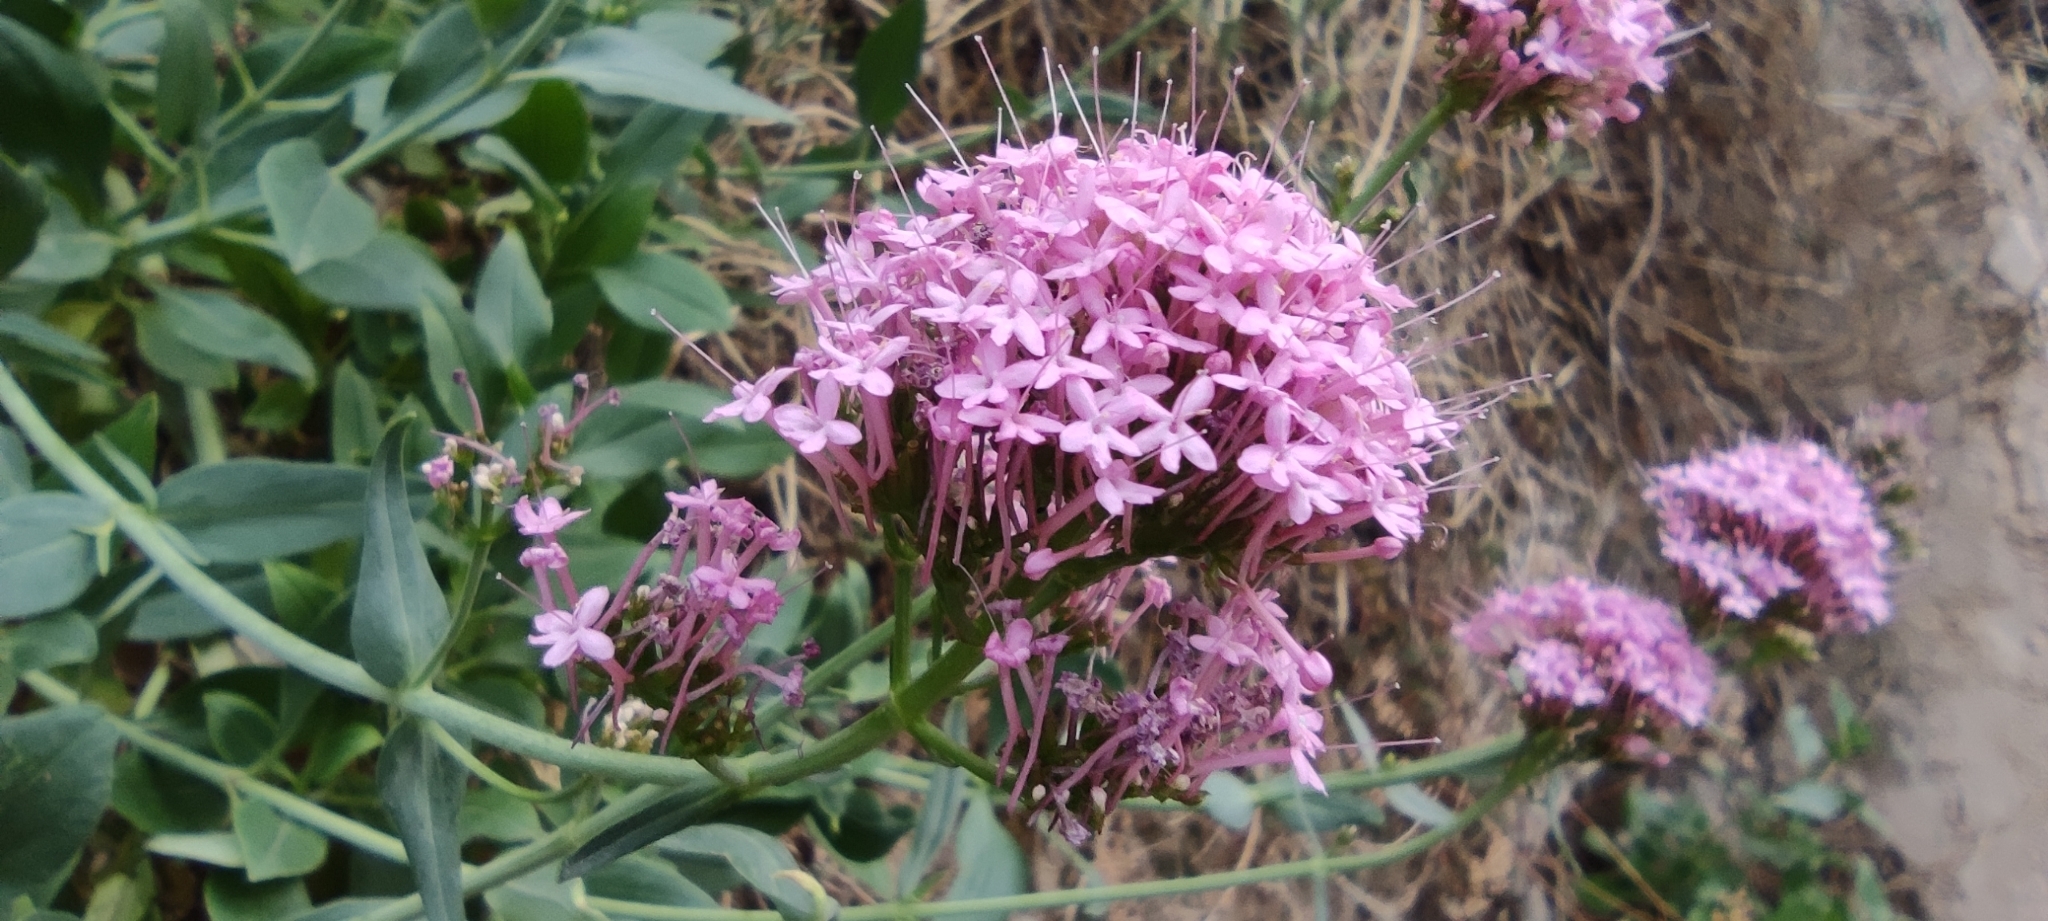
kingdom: Plantae
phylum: Tracheophyta
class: Magnoliopsida
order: Dipsacales
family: Caprifoliaceae
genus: Centranthus
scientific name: Centranthus ruber
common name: Red valerian
